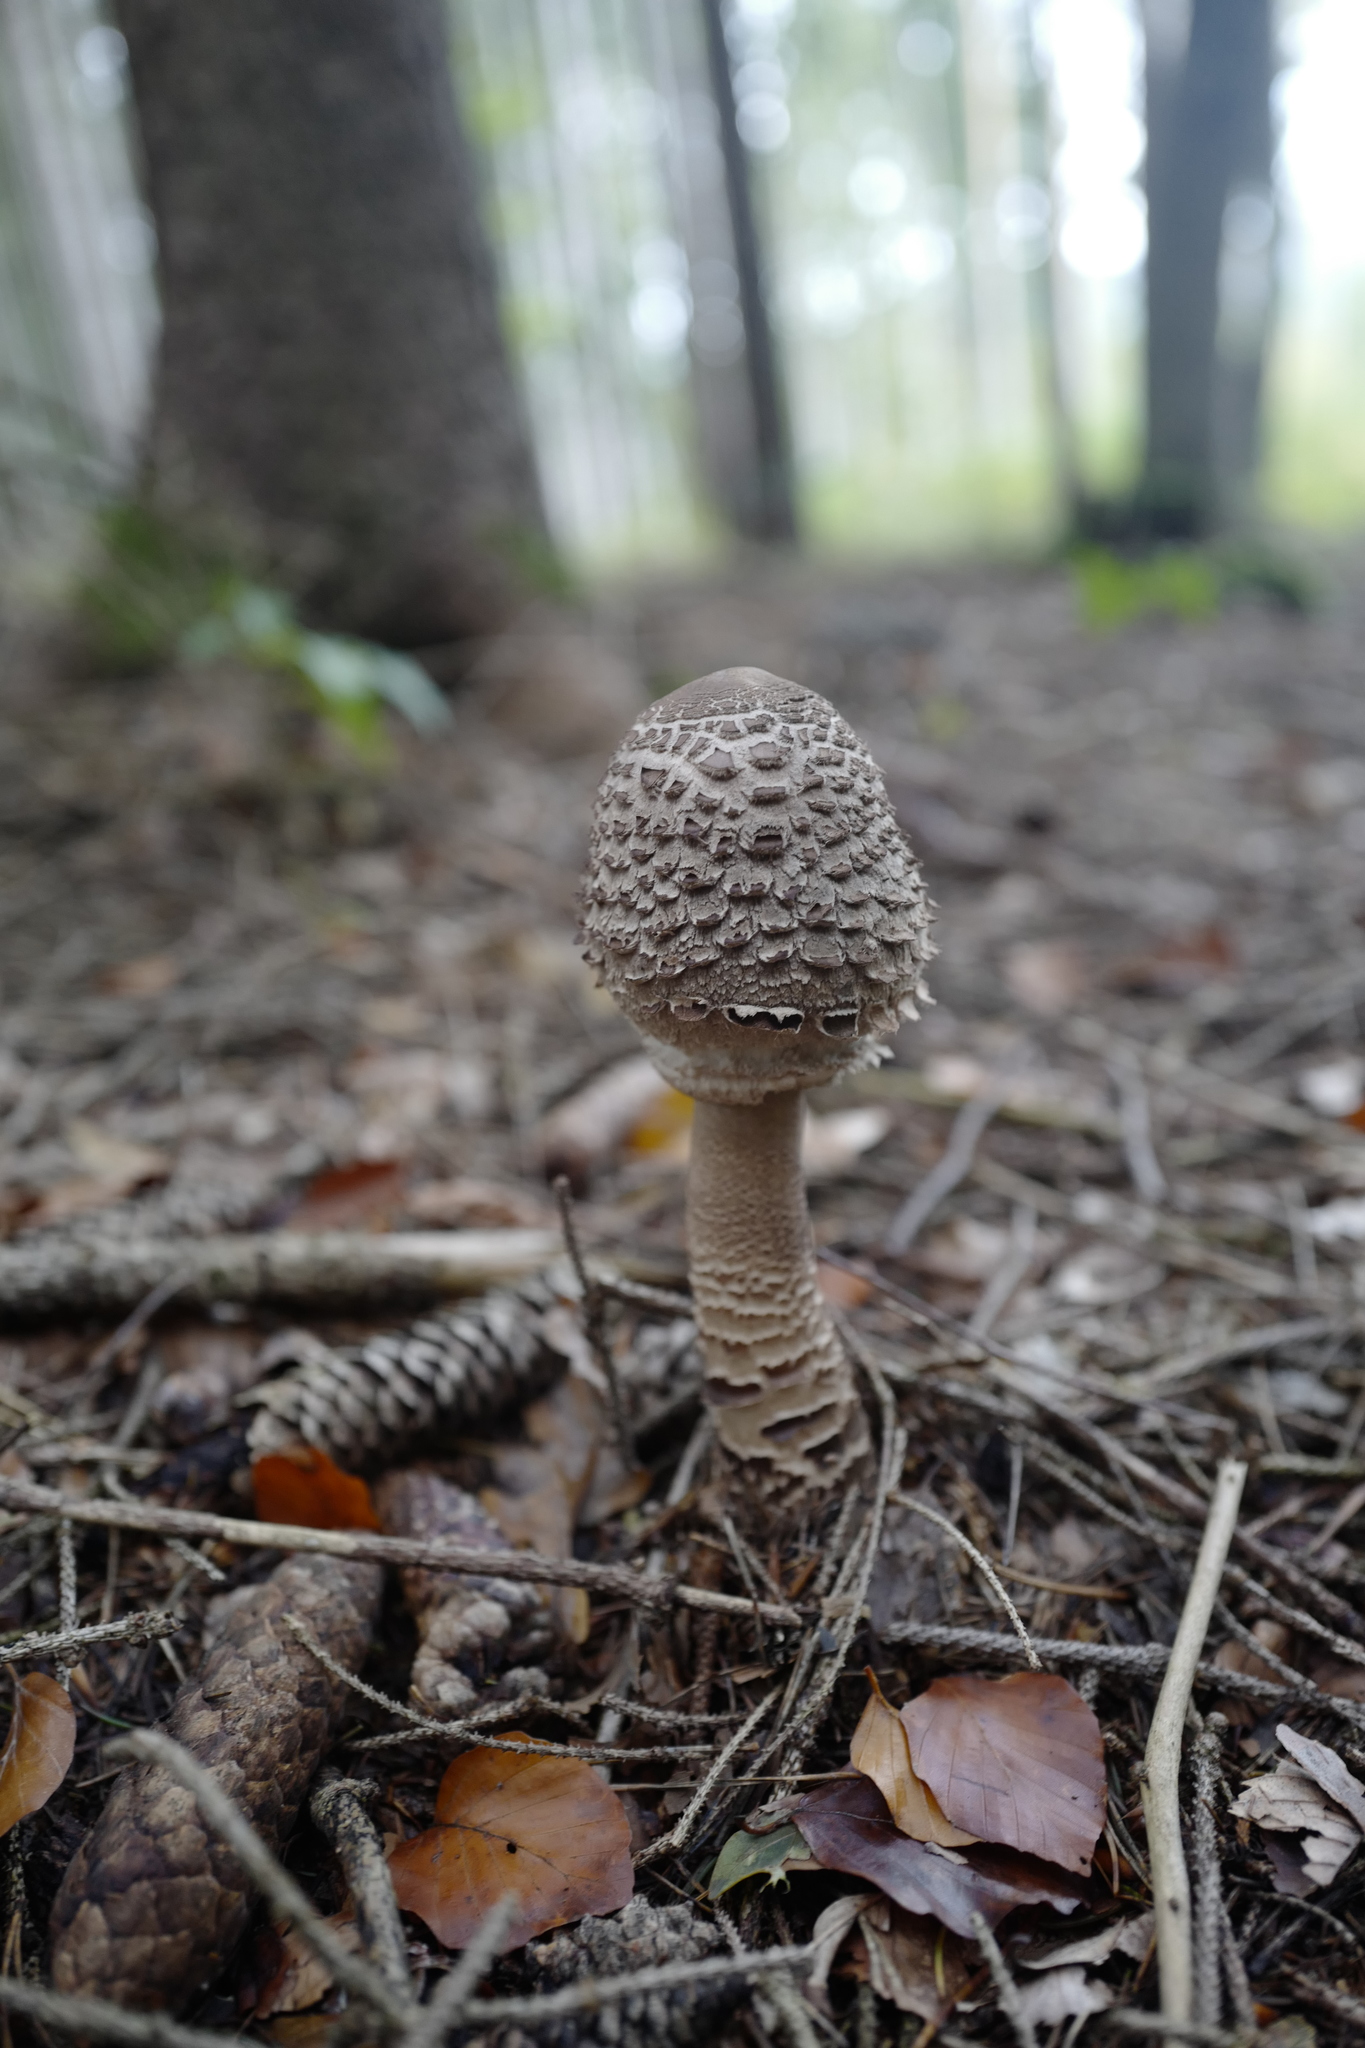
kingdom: Fungi
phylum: Basidiomycota
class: Agaricomycetes
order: Agaricales
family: Agaricaceae
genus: Macrolepiota
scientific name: Macrolepiota procera
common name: Parasol
